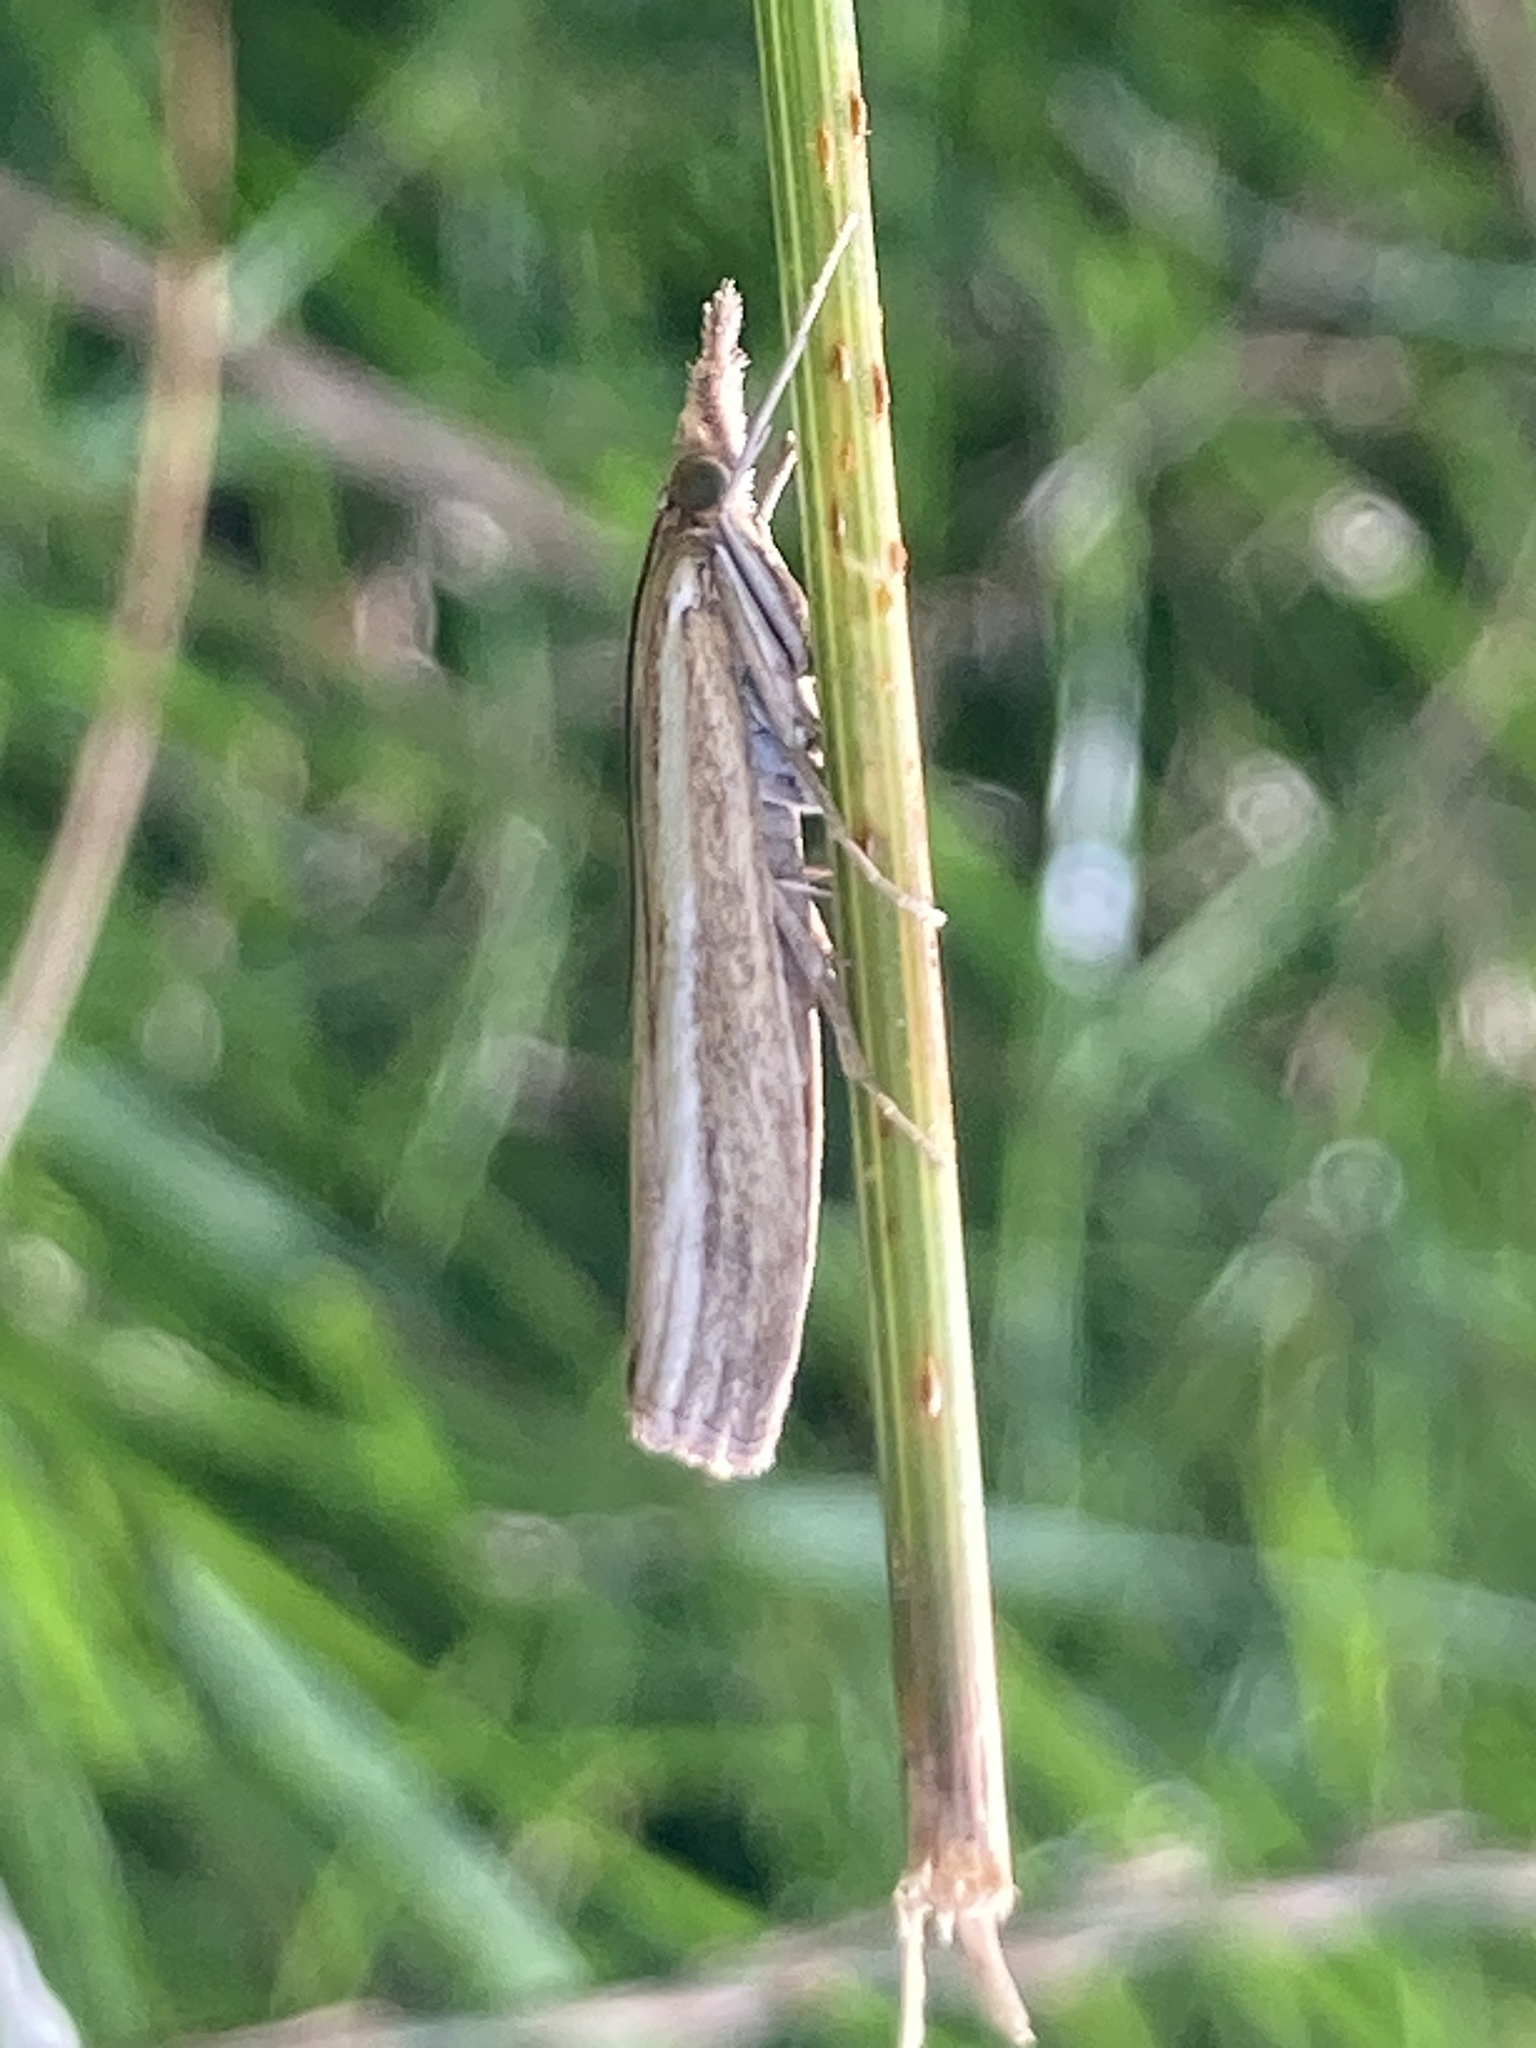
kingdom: Animalia
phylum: Arthropoda
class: Insecta
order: Lepidoptera
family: Crambidae
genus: Agriphila
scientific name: Agriphila tristellus
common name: Common grass-veneer
